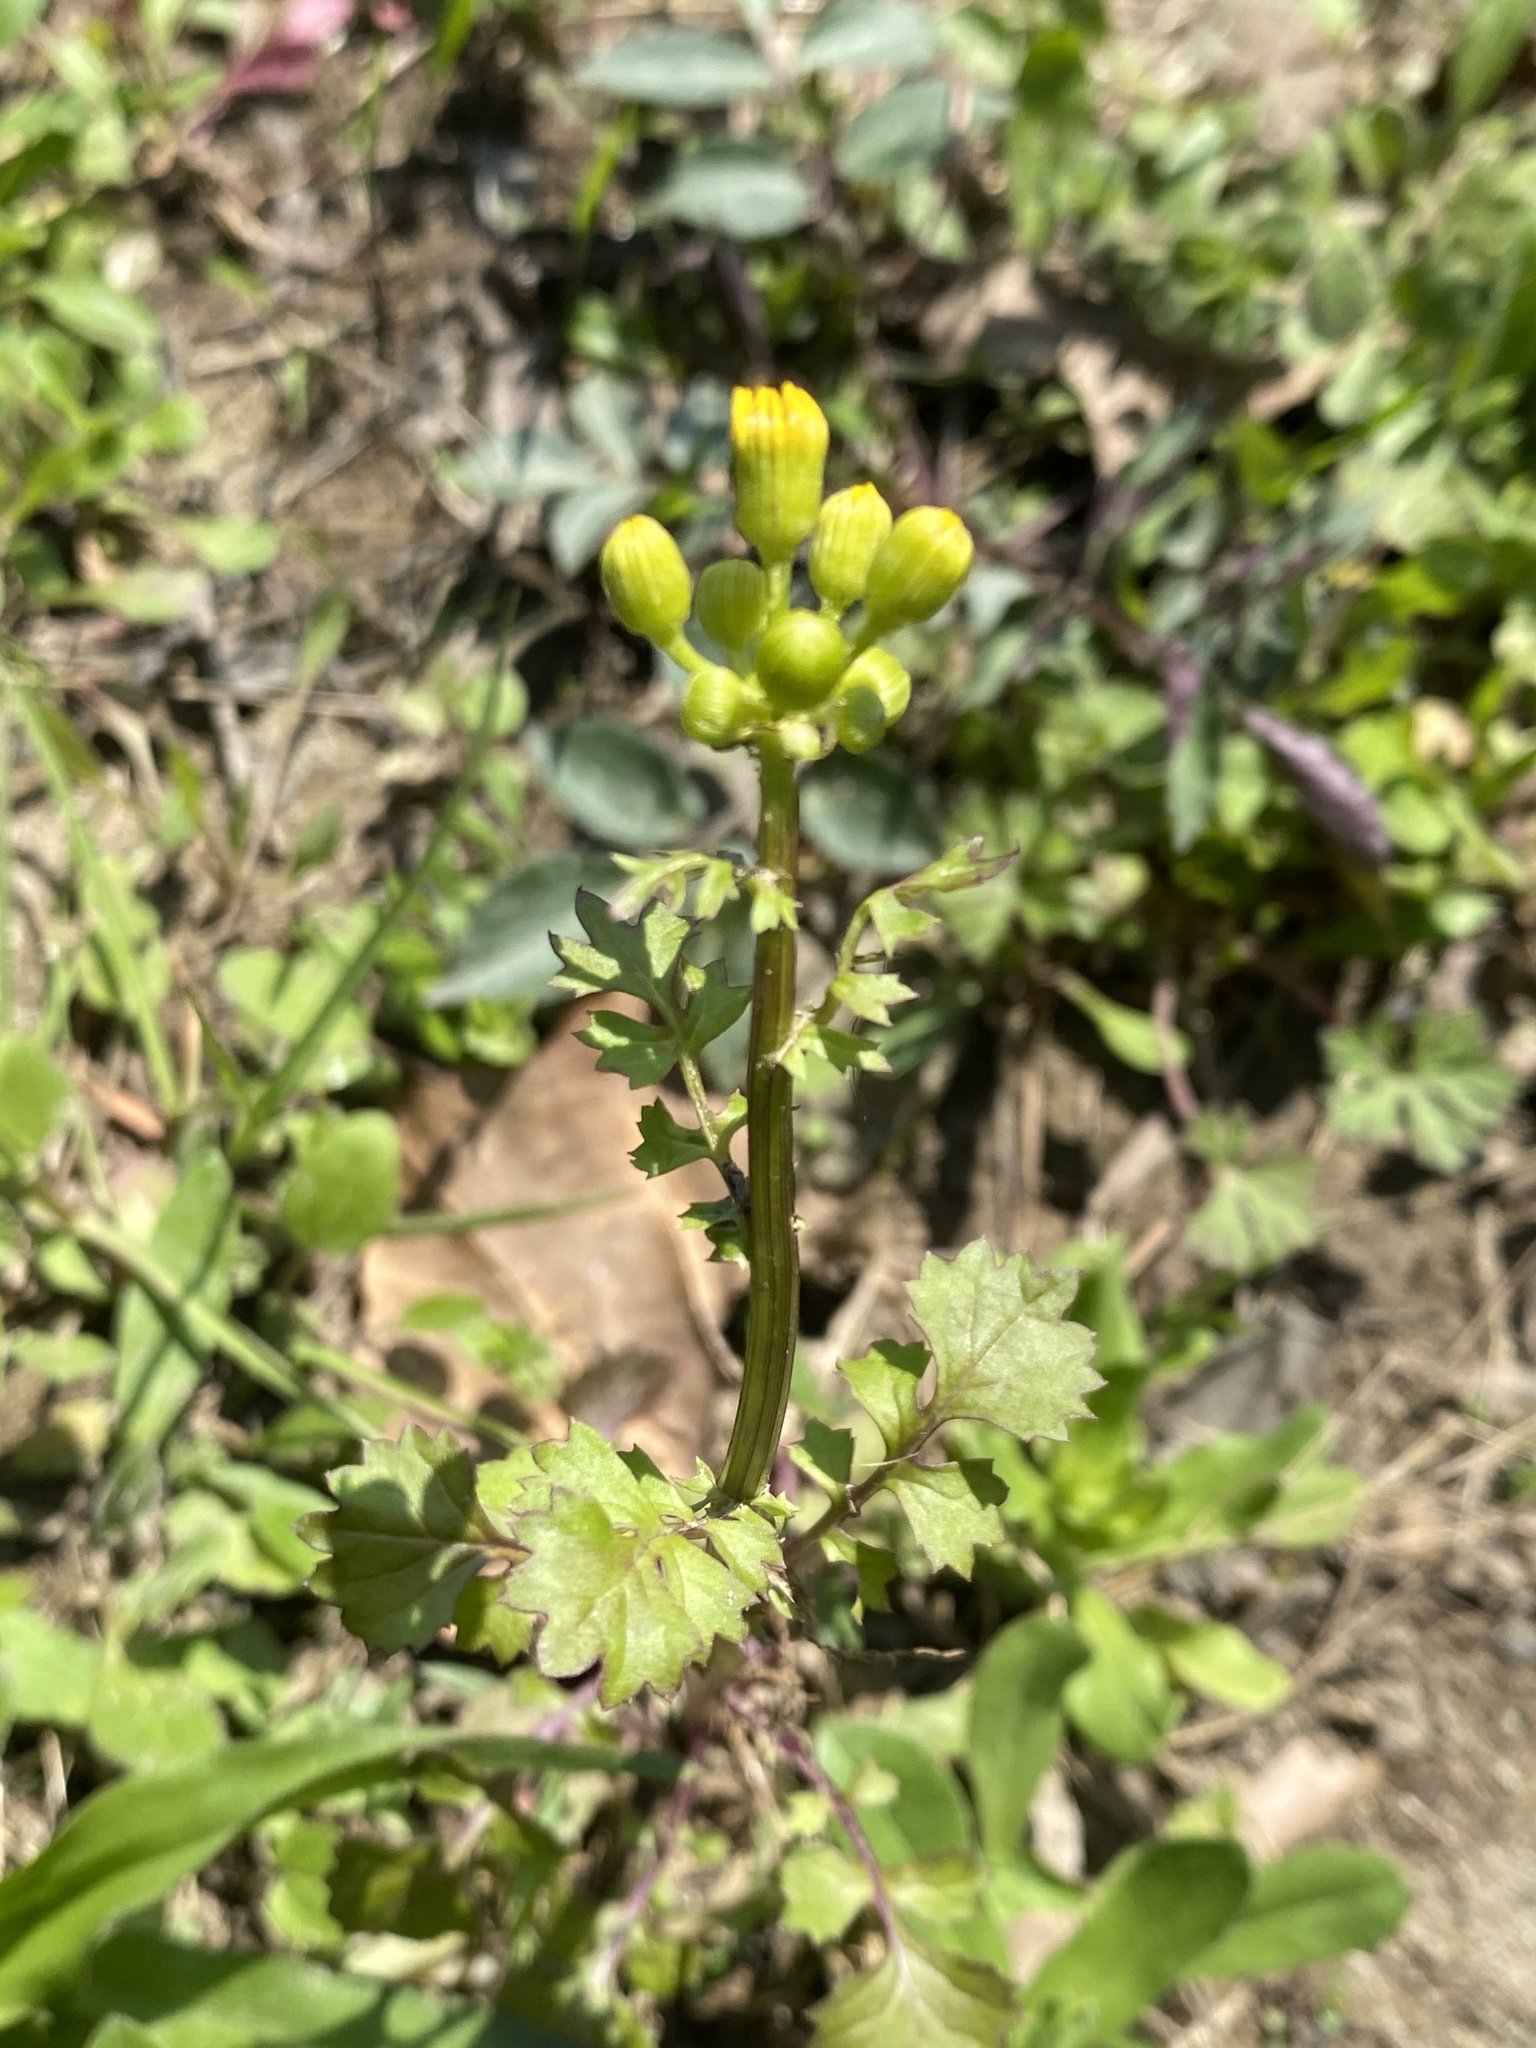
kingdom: Plantae
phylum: Tracheophyta
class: Magnoliopsida
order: Asterales
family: Asteraceae
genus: Packera
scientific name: Packera glabella
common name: Butterweed
